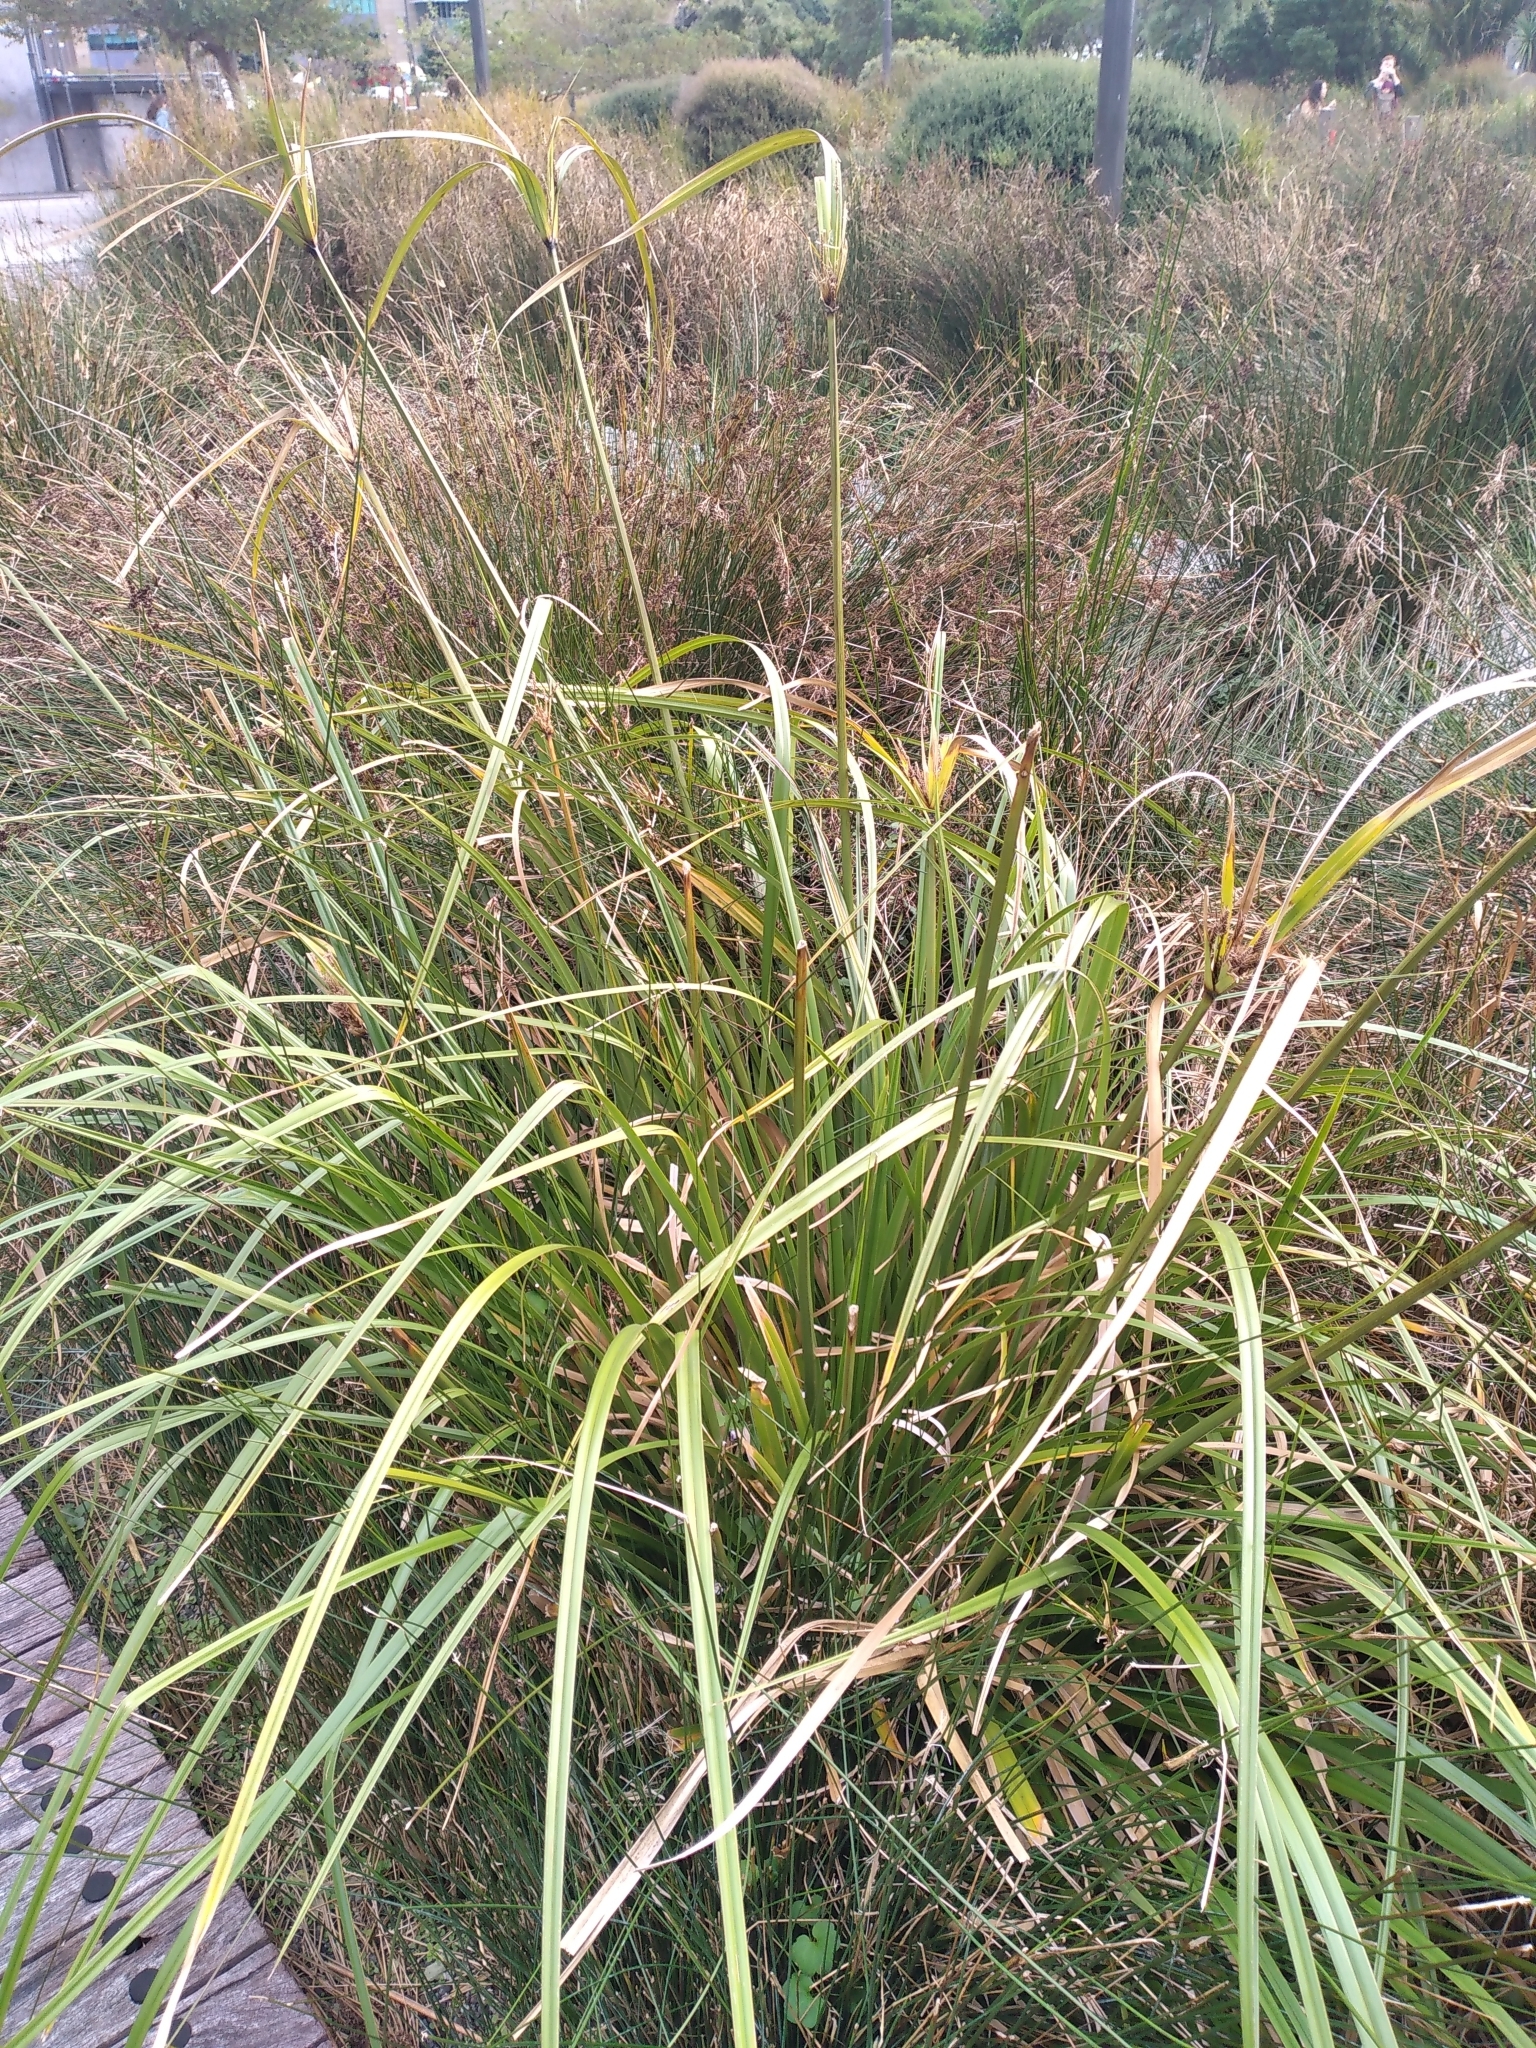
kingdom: Plantae
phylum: Tracheophyta
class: Liliopsida
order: Poales
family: Cyperaceae
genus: Cyperus
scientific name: Cyperus ustulatus
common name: Giant umbrella-sedge
